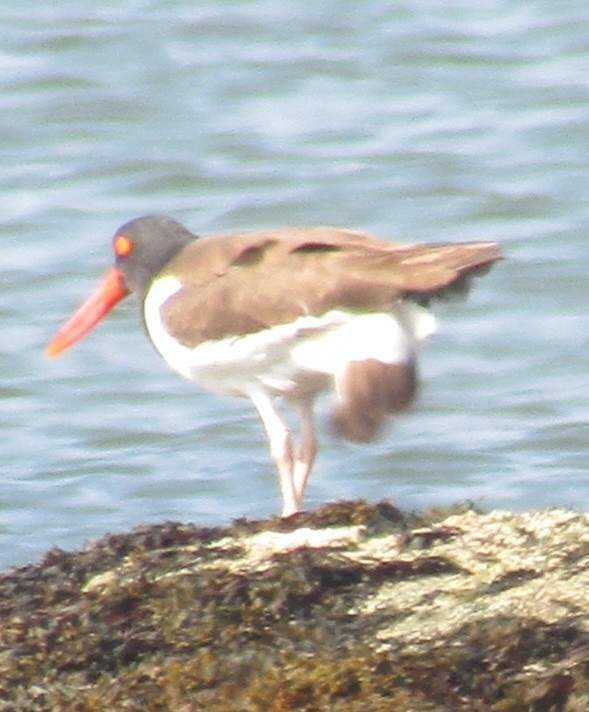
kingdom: Animalia
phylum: Chordata
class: Aves
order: Charadriiformes
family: Haematopodidae
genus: Haematopus
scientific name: Haematopus palliatus
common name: American oystercatcher
